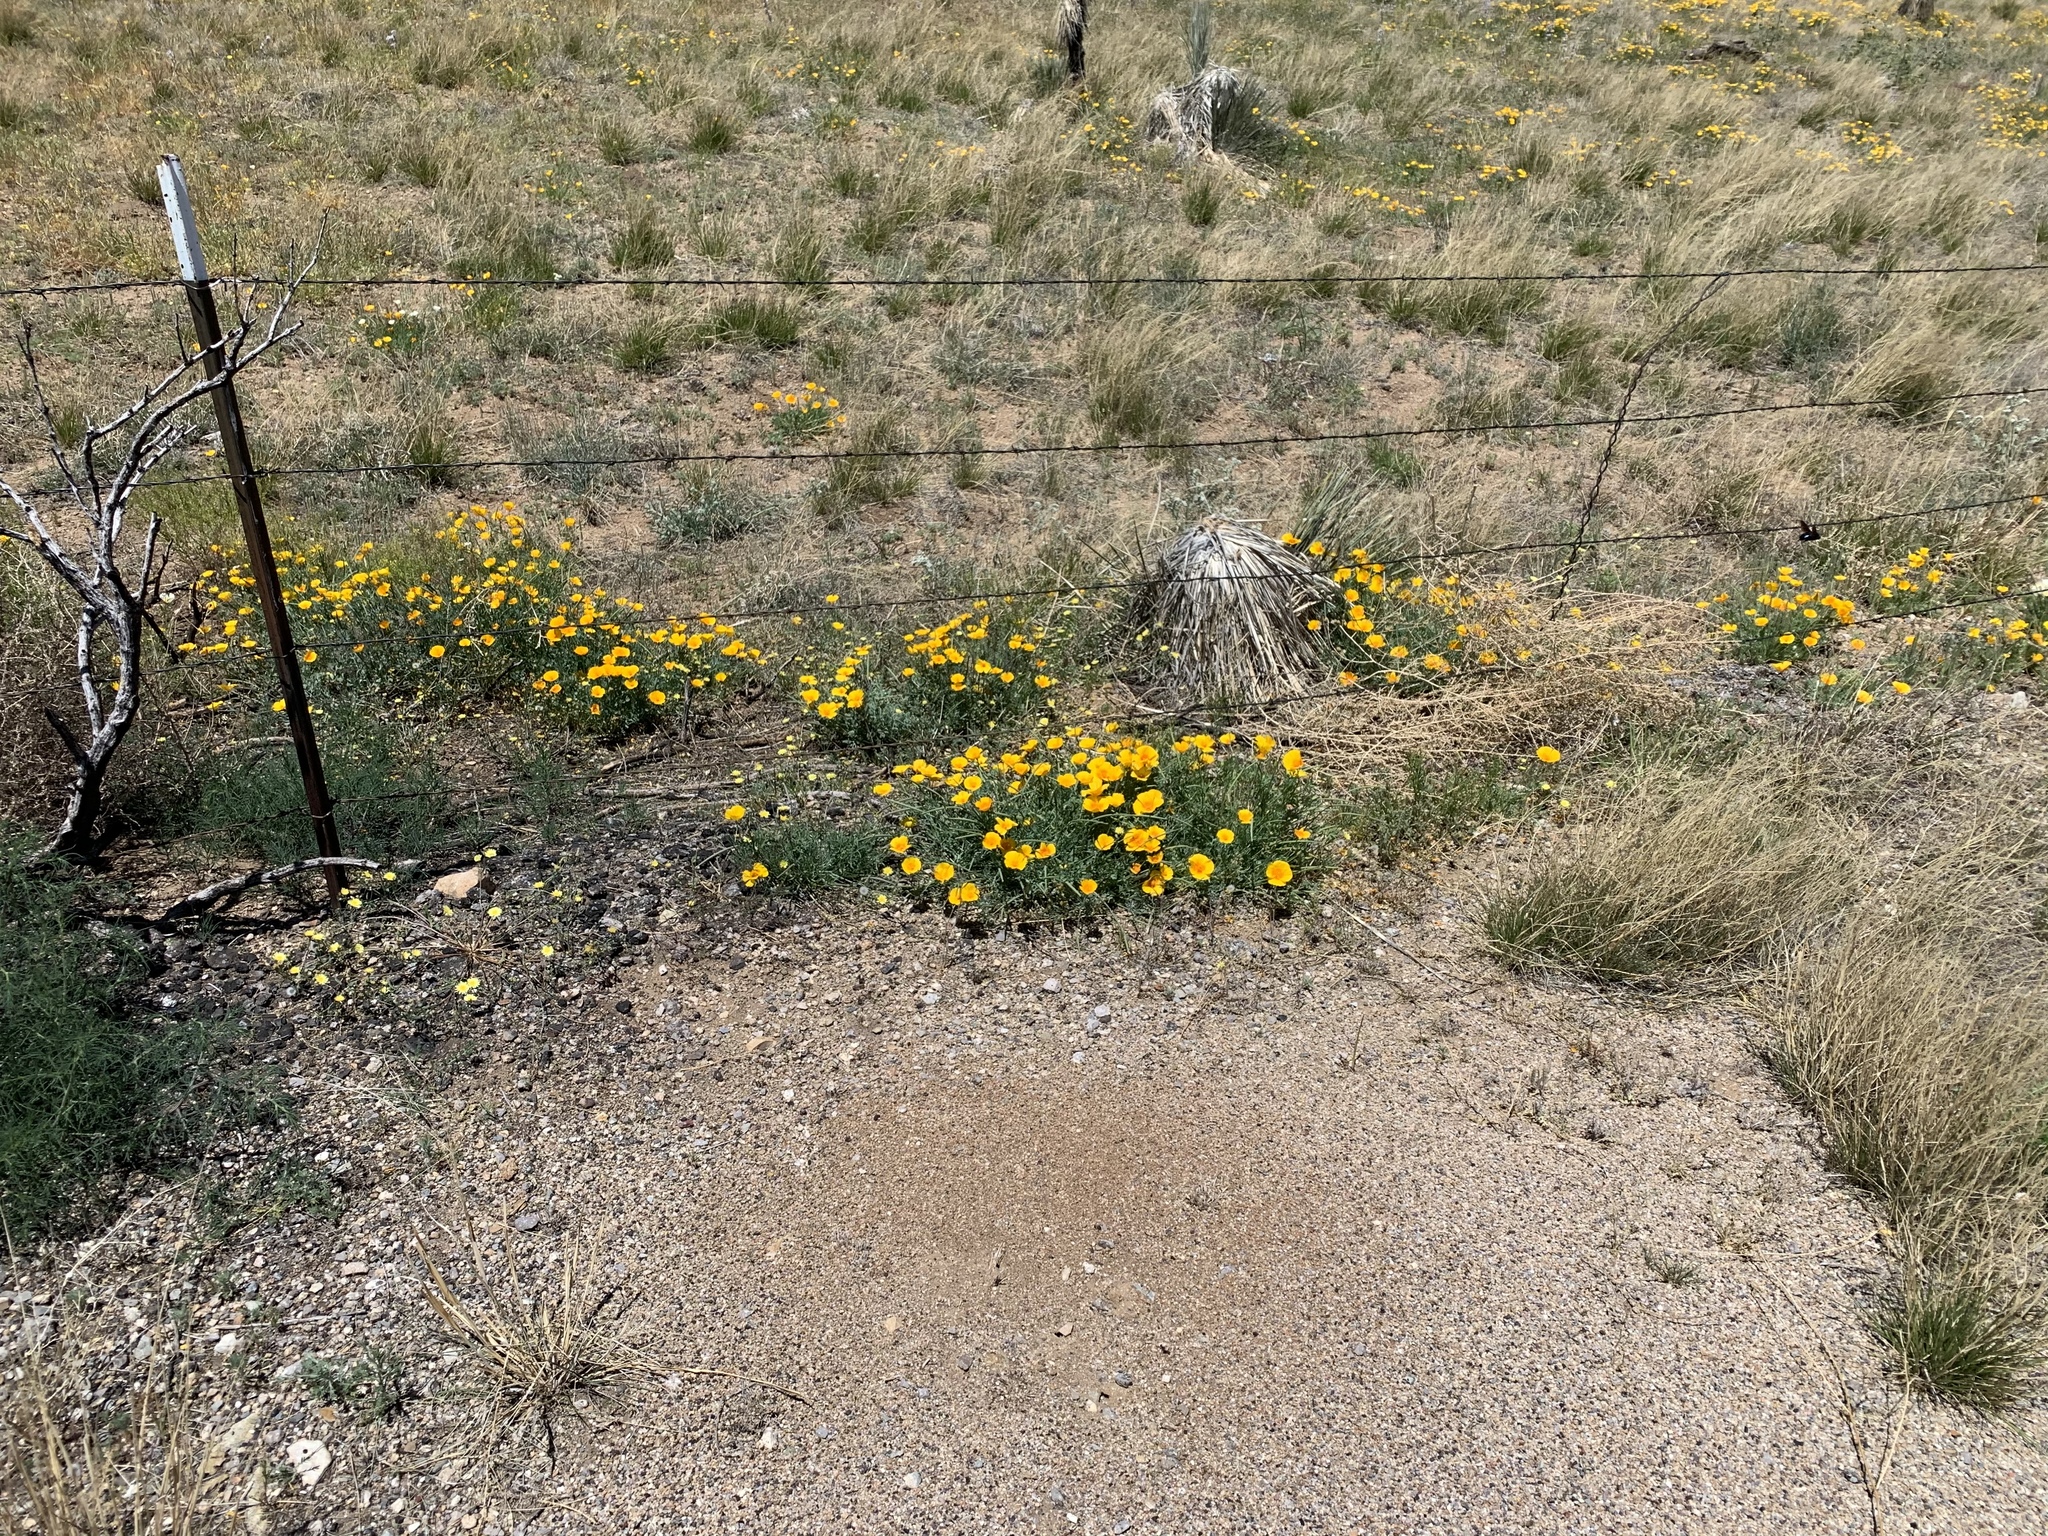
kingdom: Plantae
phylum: Tracheophyta
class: Magnoliopsida
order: Ranunculales
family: Papaveraceae
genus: Eschscholzia
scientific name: Eschscholzia californica
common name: California poppy
